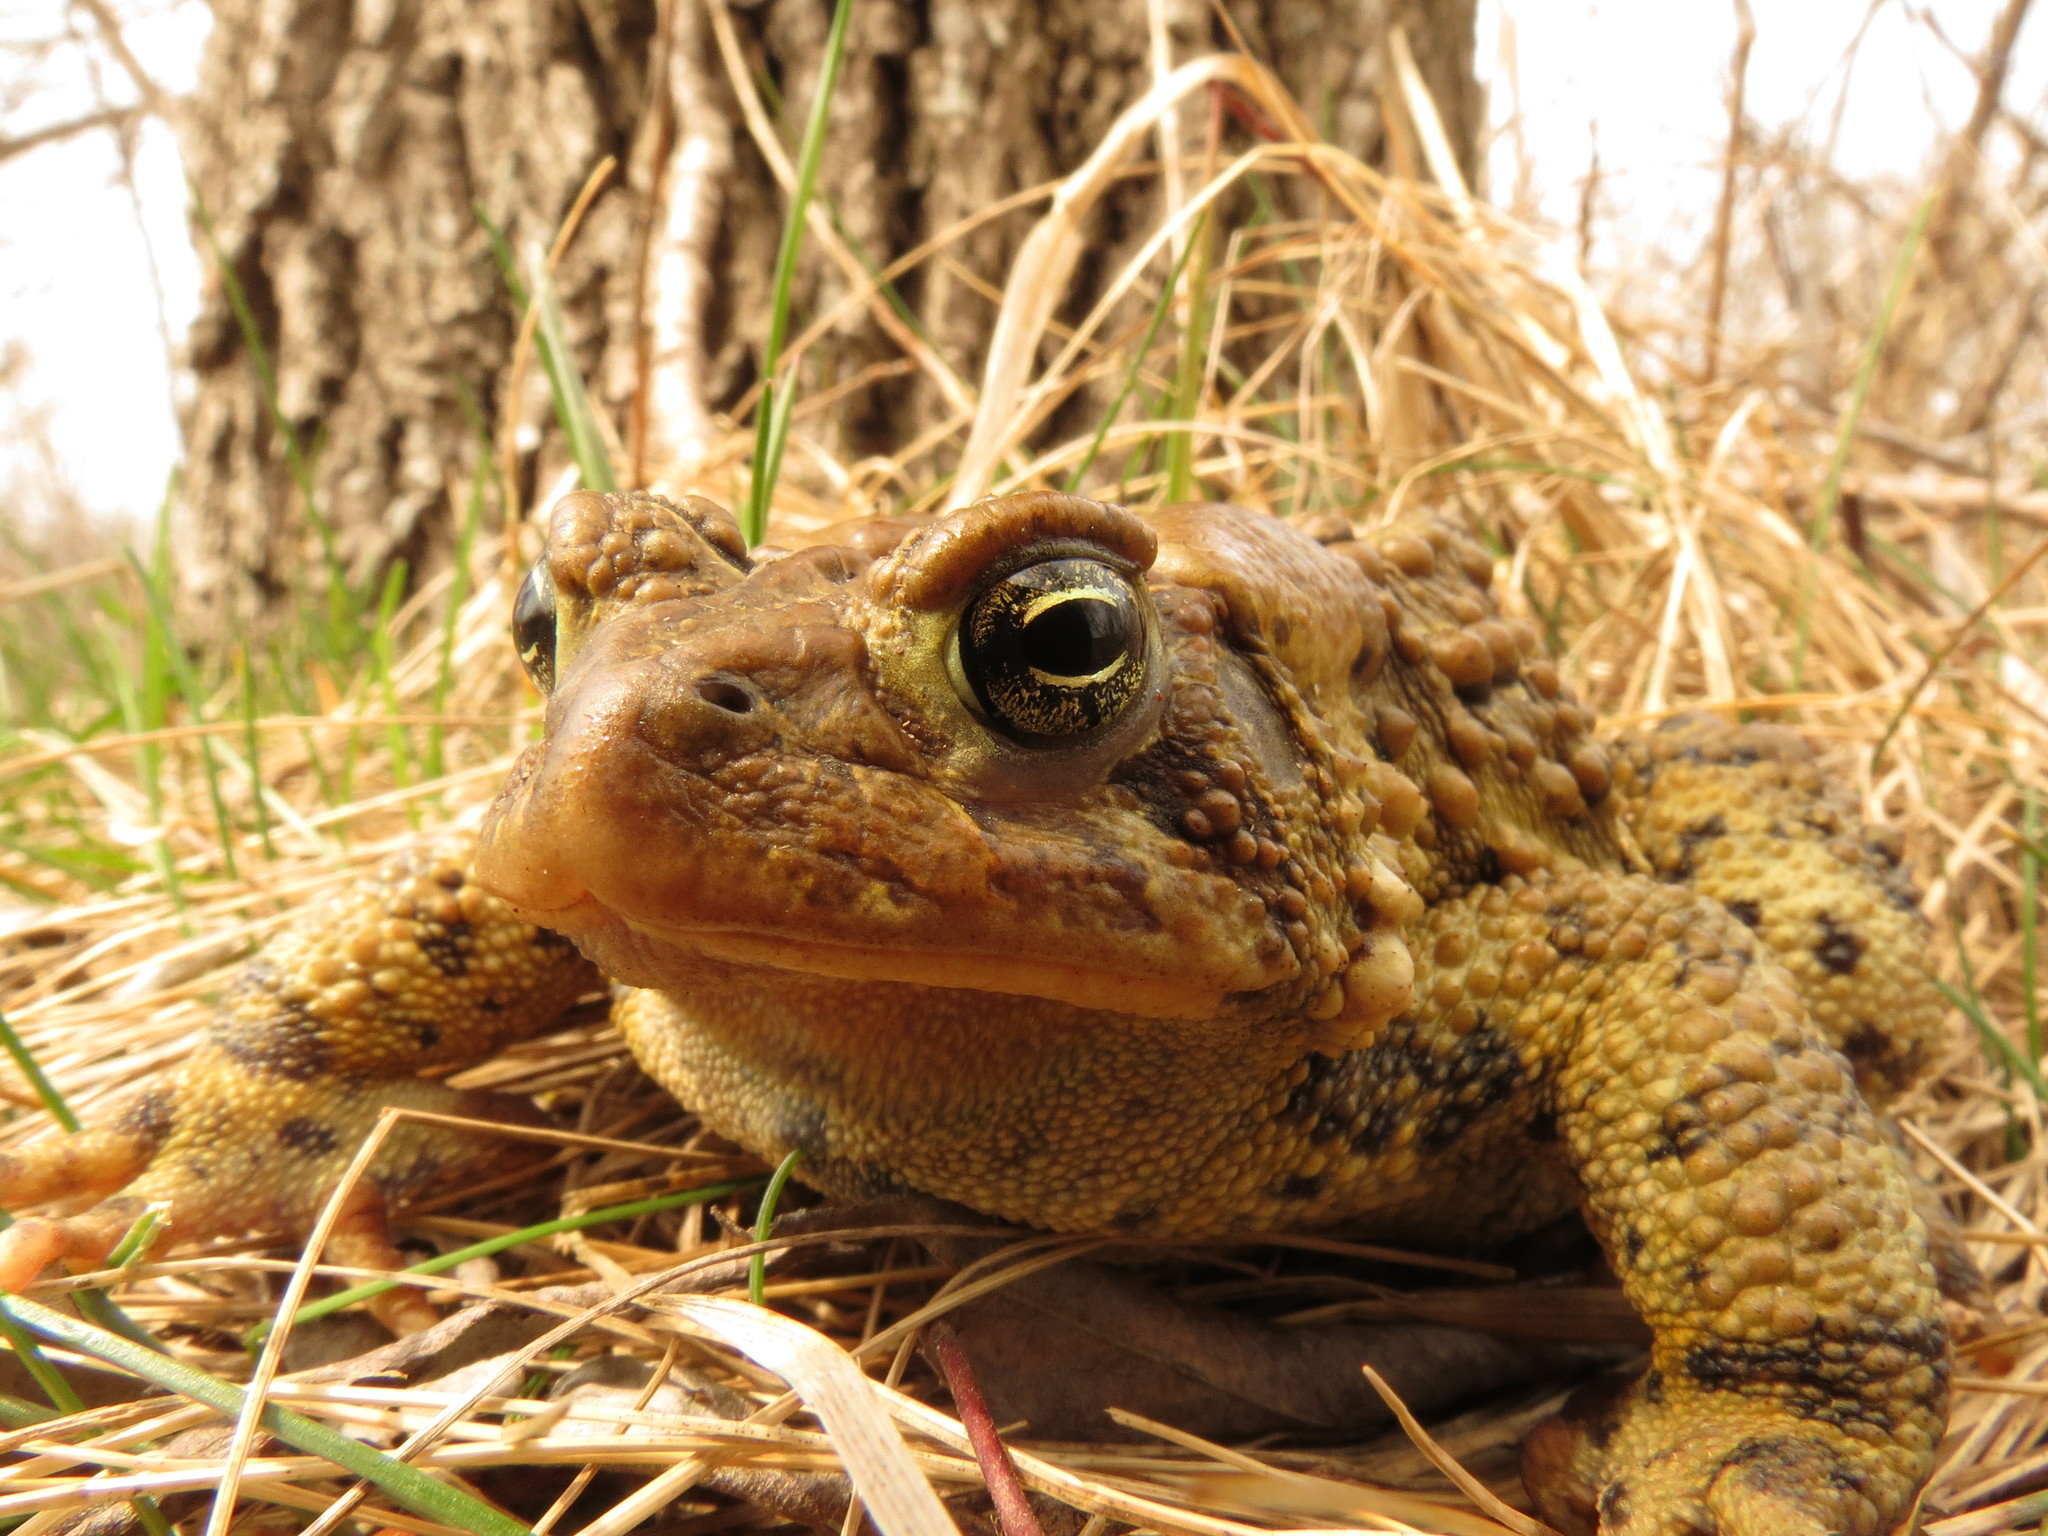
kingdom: Animalia
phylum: Chordata
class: Amphibia
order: Anura
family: Bufonidae
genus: Anaxyrus
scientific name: Anaxyrus americanus
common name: American toad
